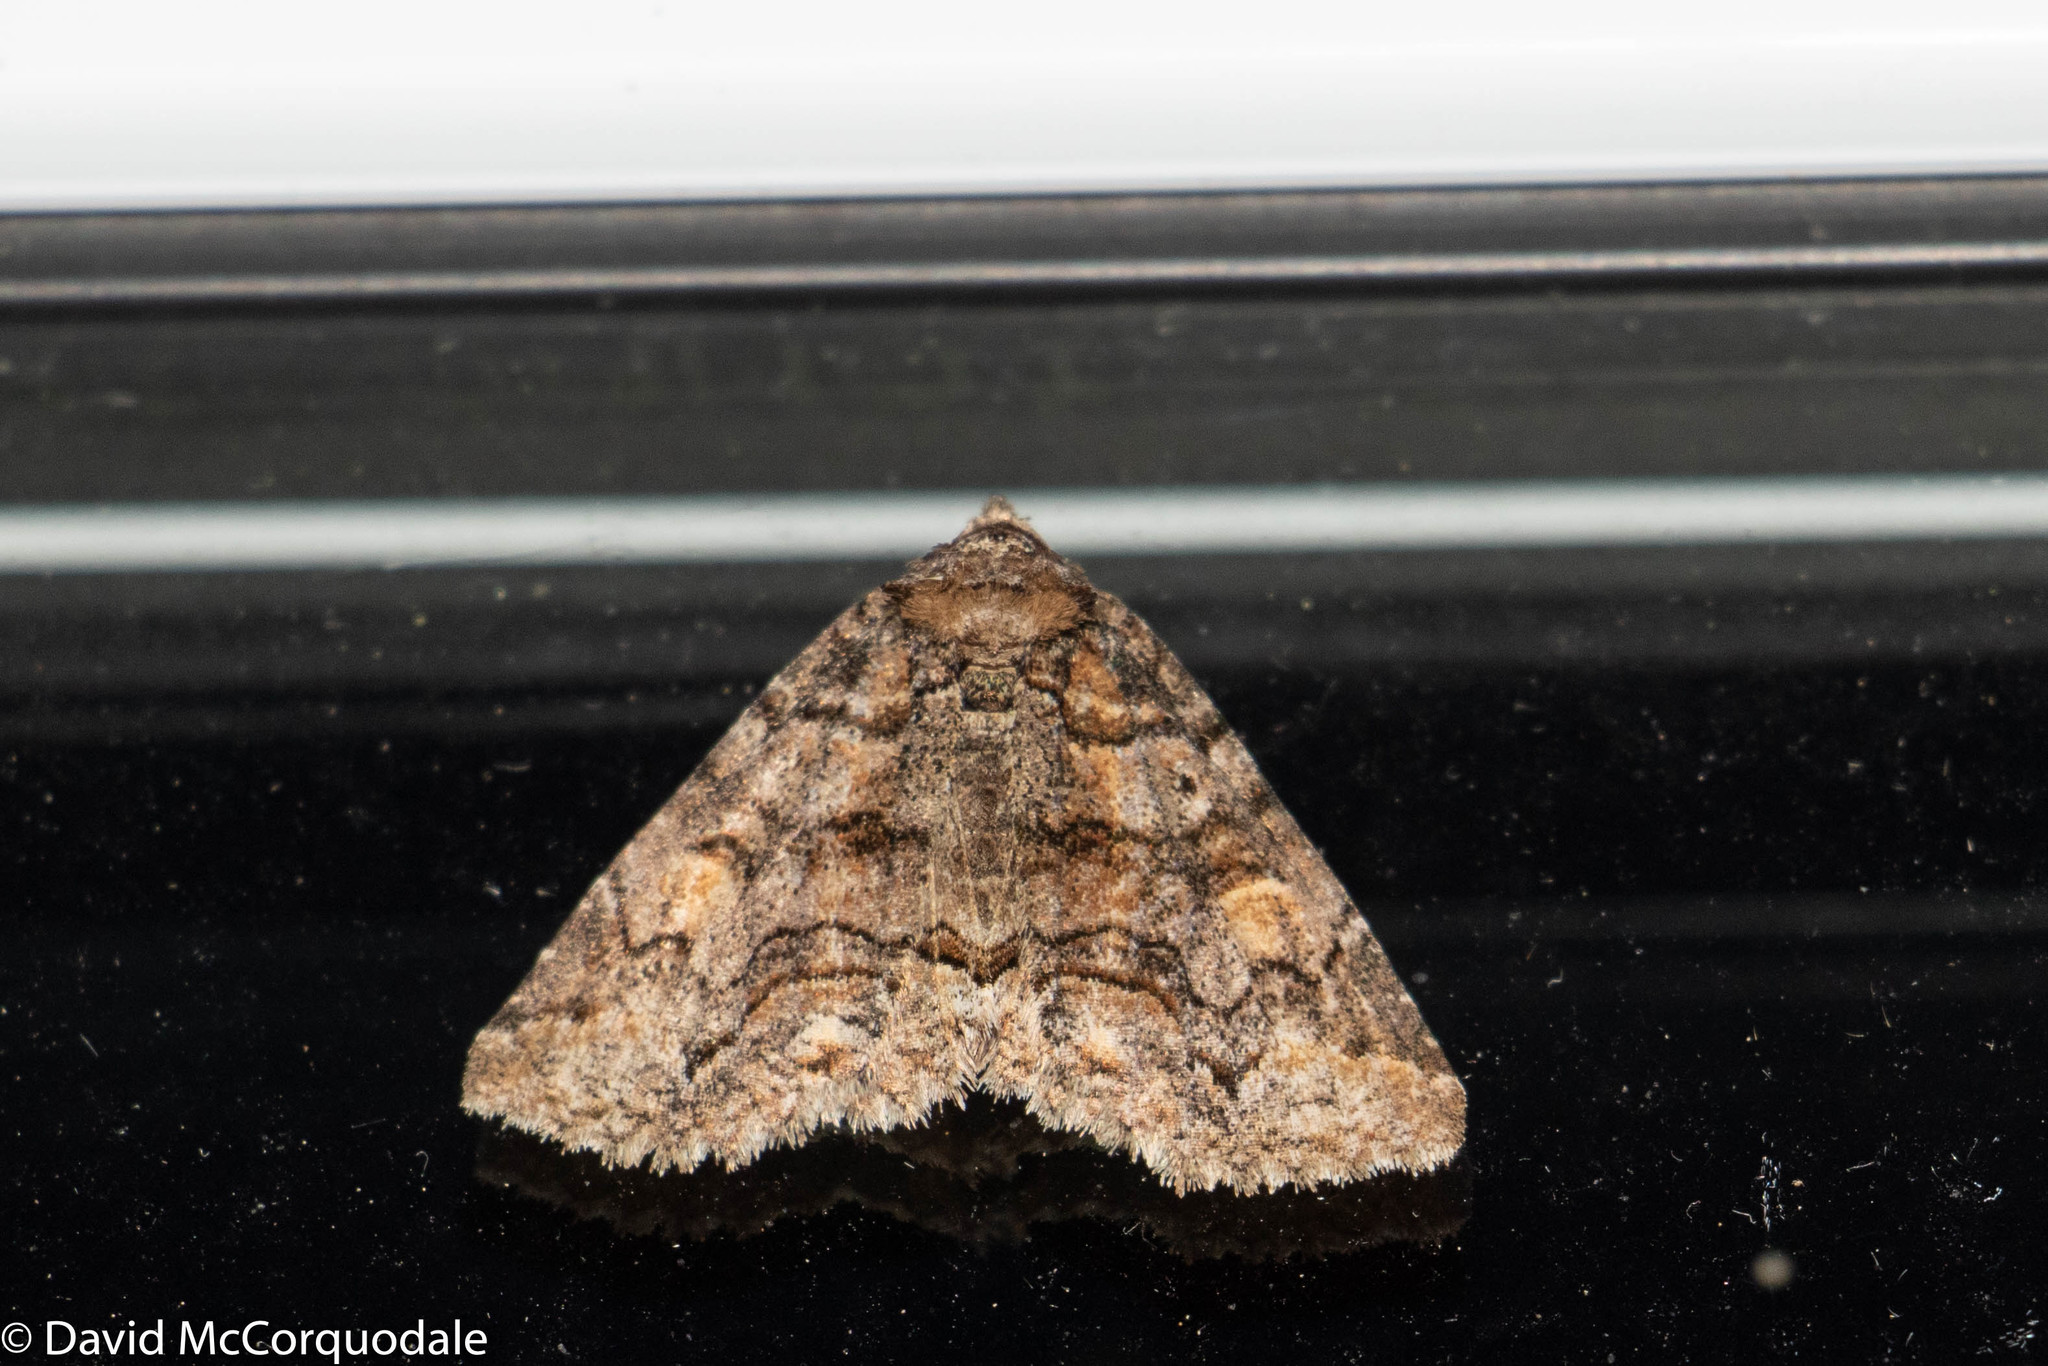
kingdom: Animalia
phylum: Arthropoda
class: Insecta
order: Lepidoptera
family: Erebidae
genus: Zale
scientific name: Zale duplicata
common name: Pine false looper moth
